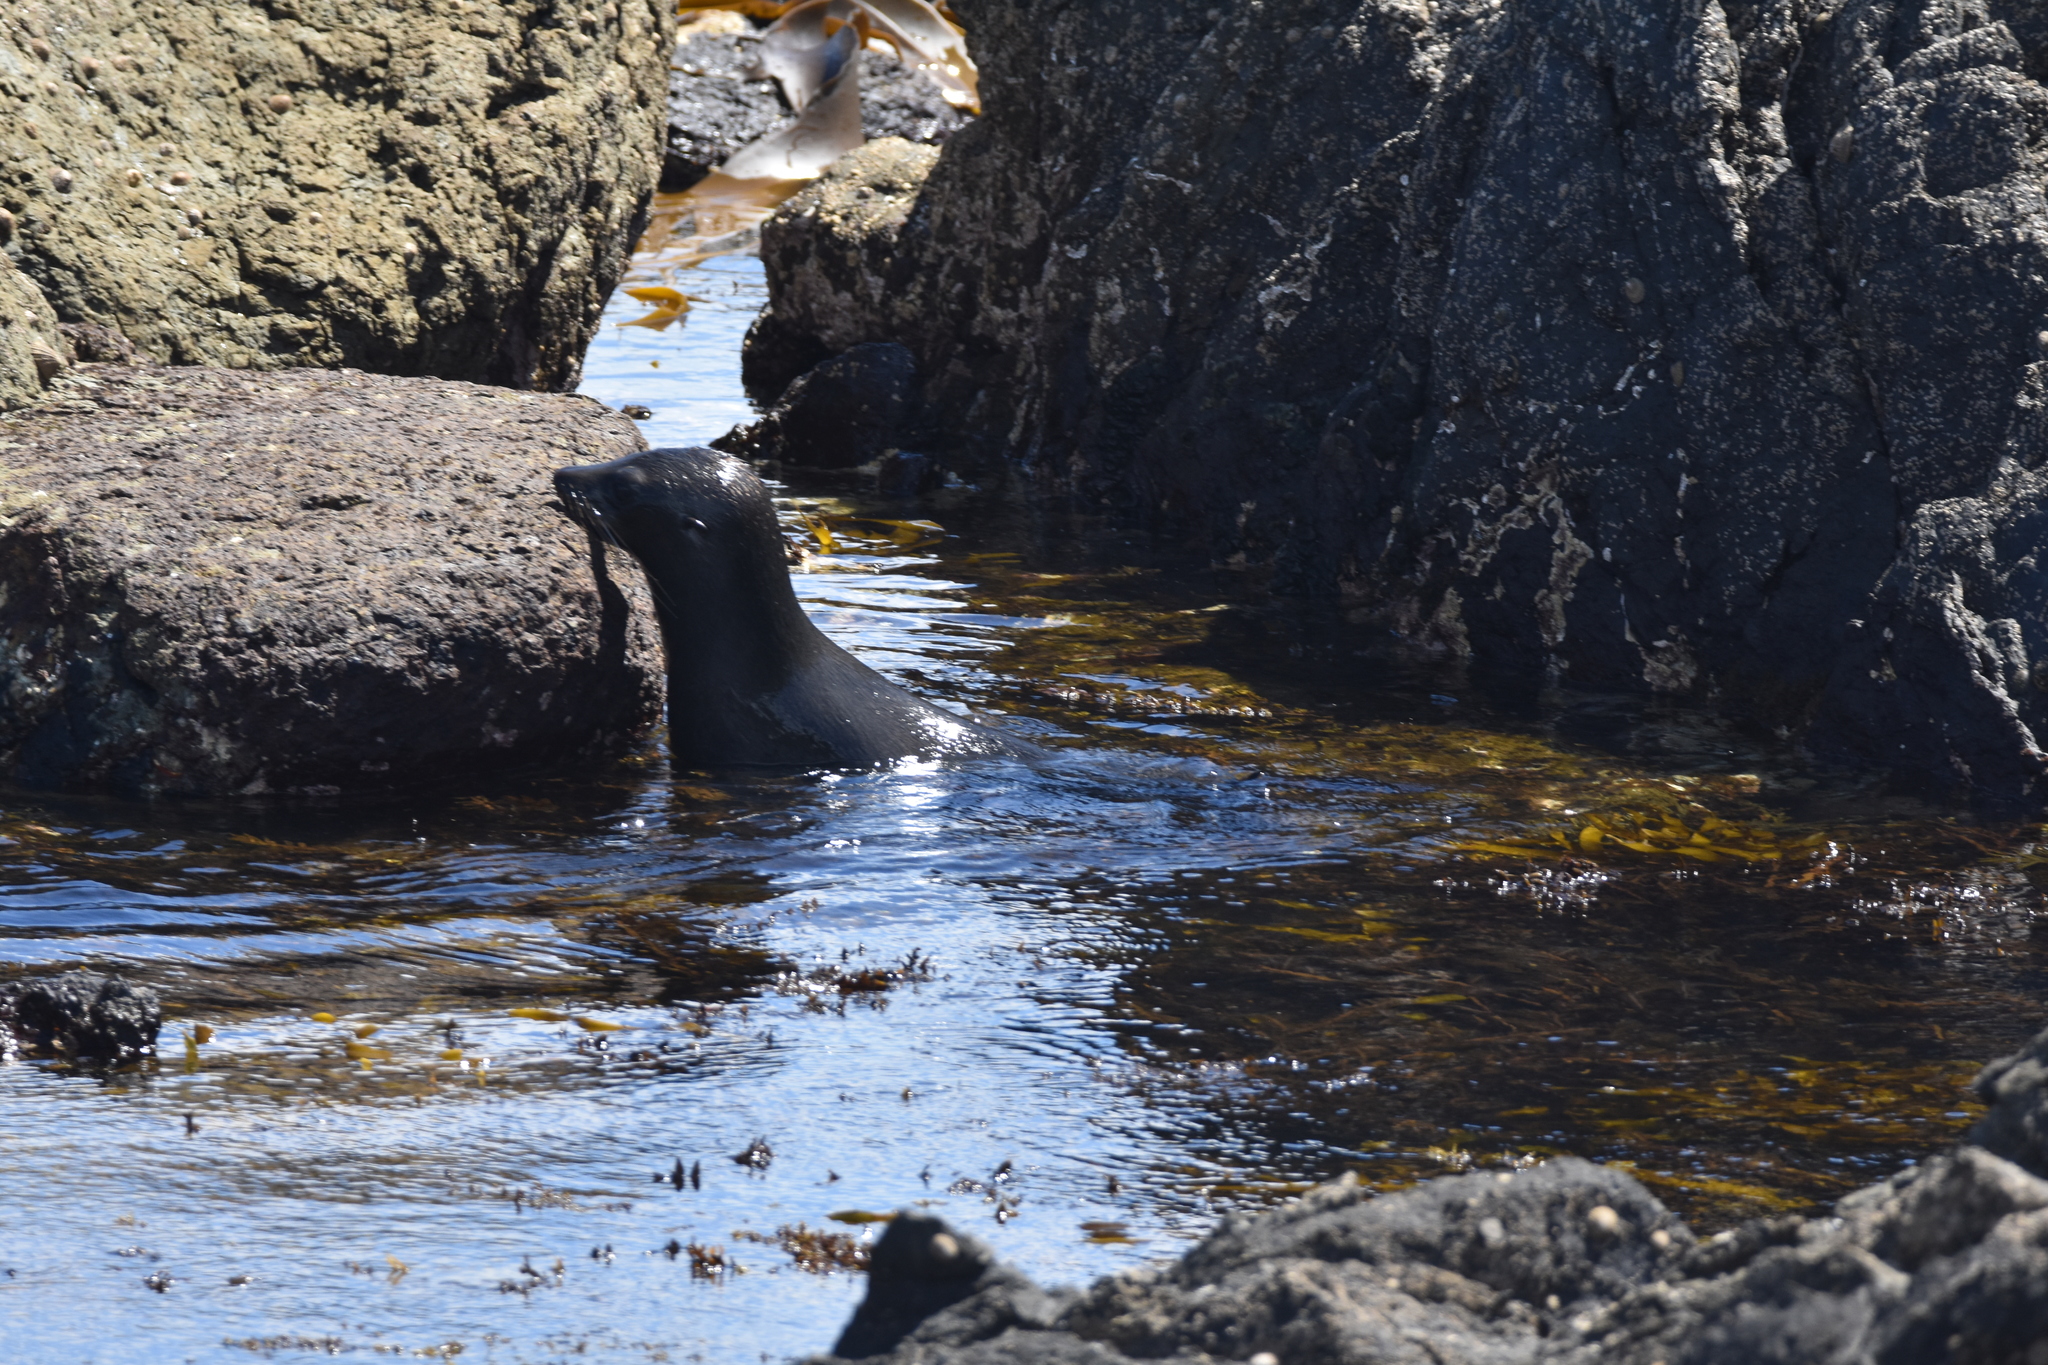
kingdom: Animalia
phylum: Chordata
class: Mammalia
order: Carnivora
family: Otariidae
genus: Arctocephalus
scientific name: Arctocephalus forsteri
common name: New zealand fur seal
